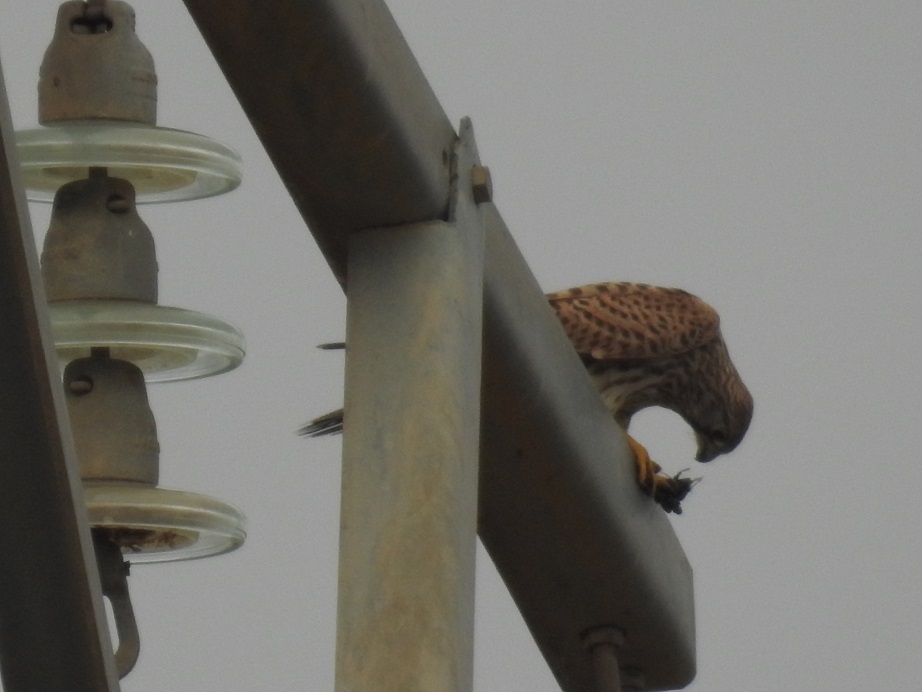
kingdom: Animalia
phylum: Chordata
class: Aves
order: Falconiformes
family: Falconidae
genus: Falco
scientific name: Falco tinnunculus
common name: Common kestrel
